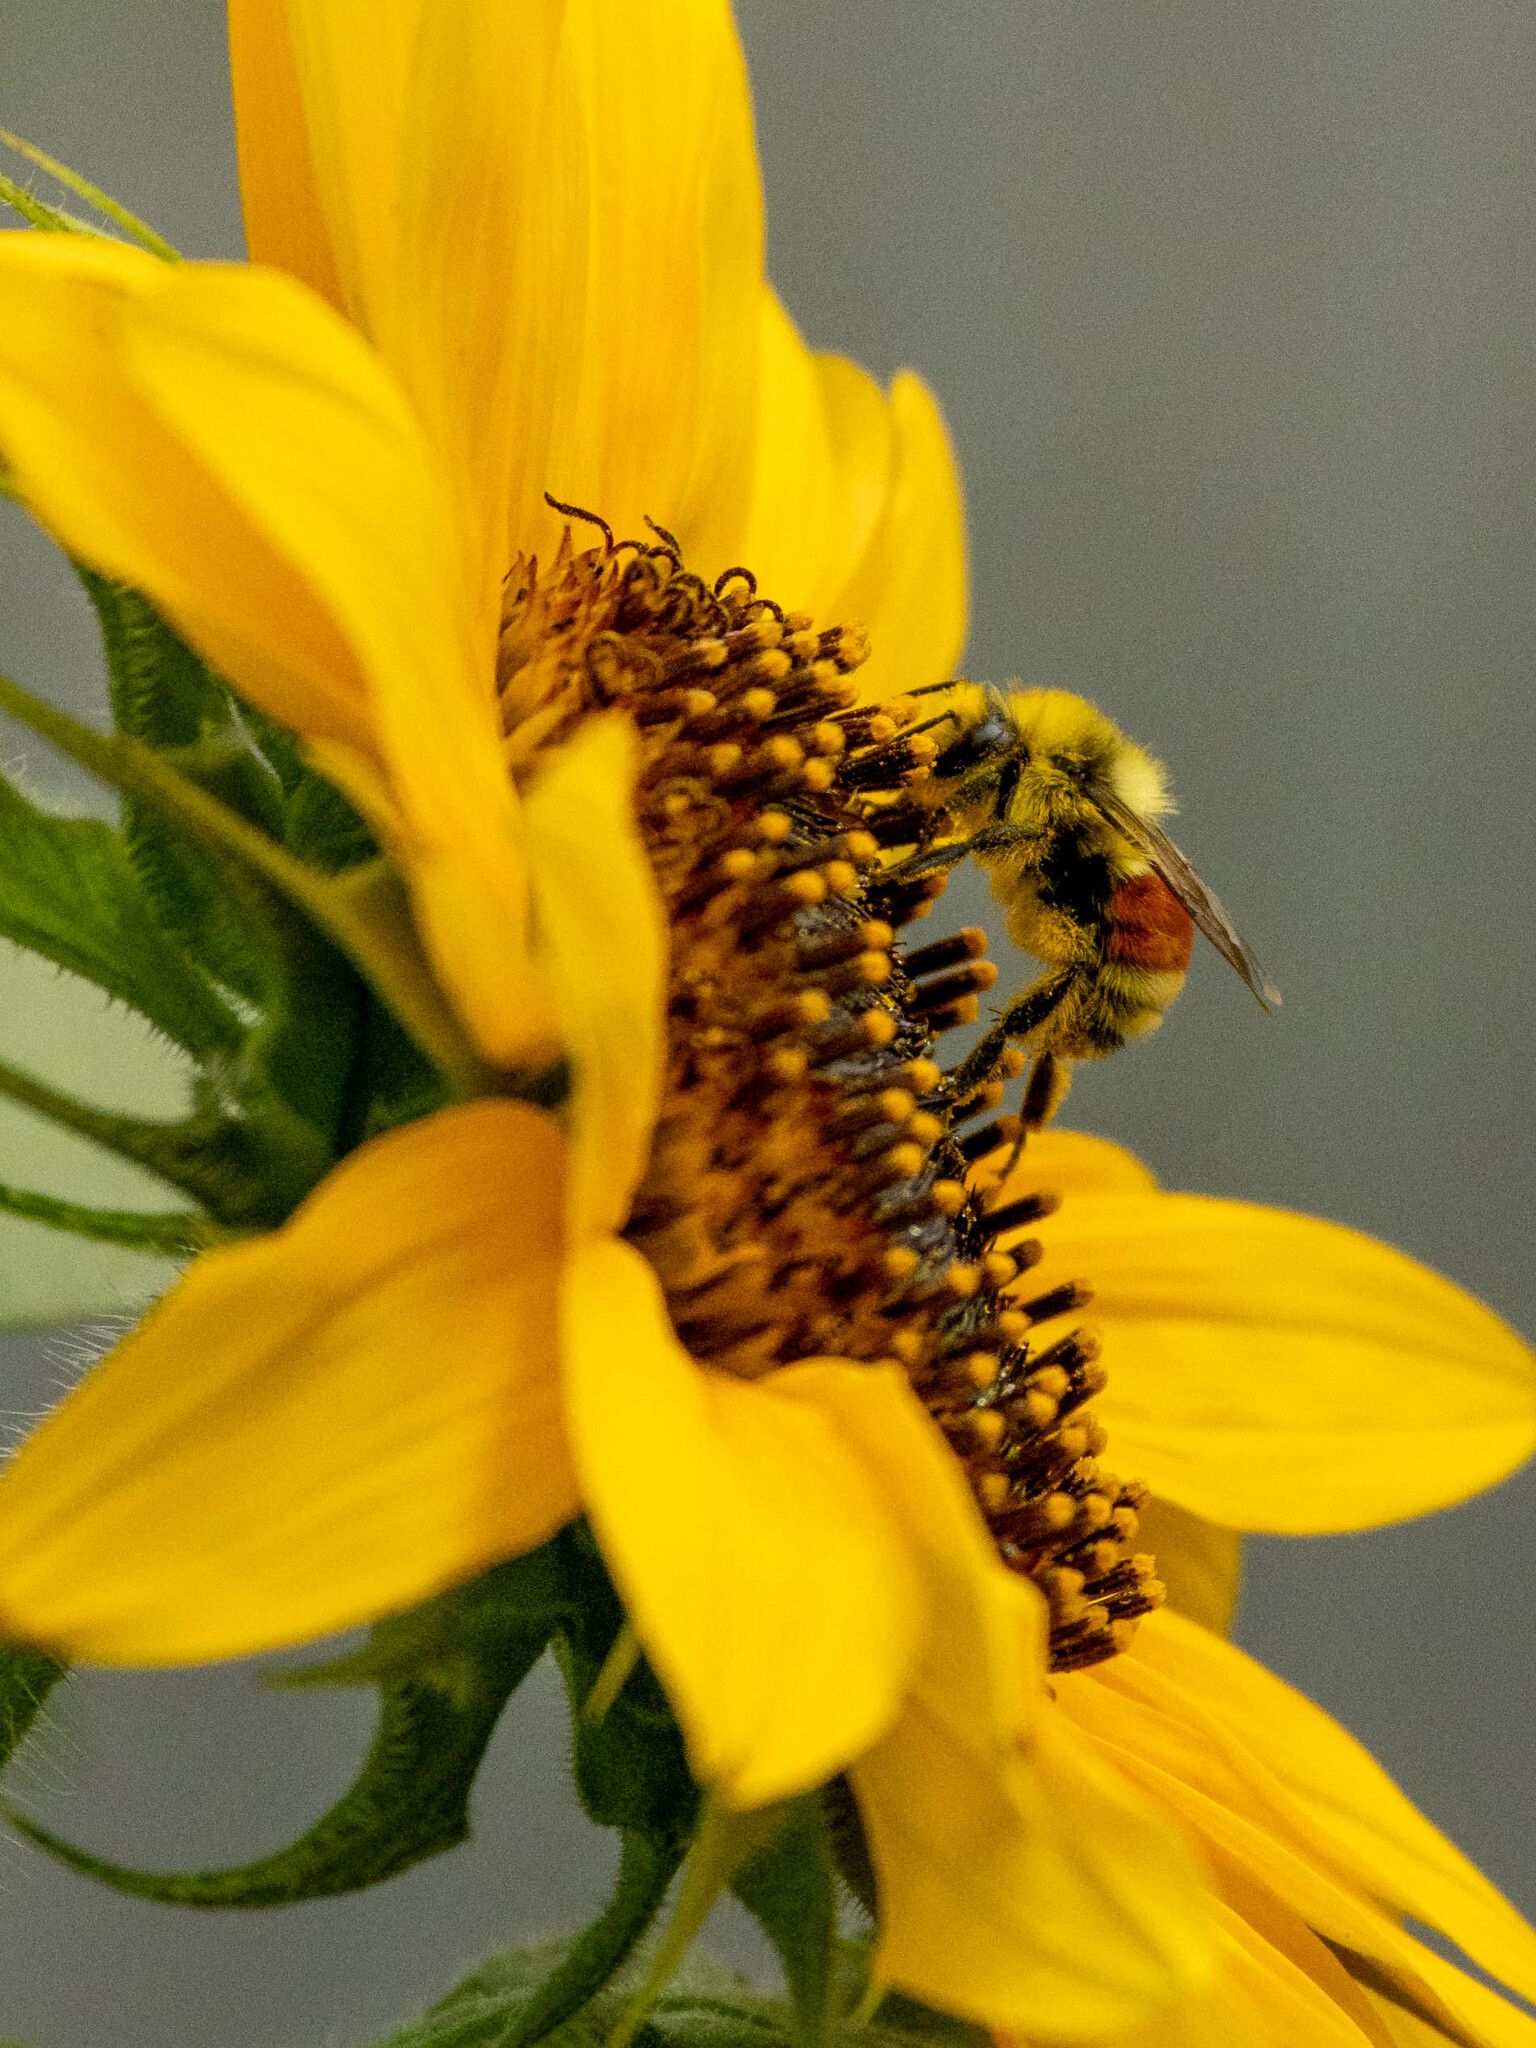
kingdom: Animalia
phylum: Arthropoda
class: Insecta
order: Hymenoptera
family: Apidae
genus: Bombus
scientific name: Bombus huntii
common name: Hunt bumble bee
